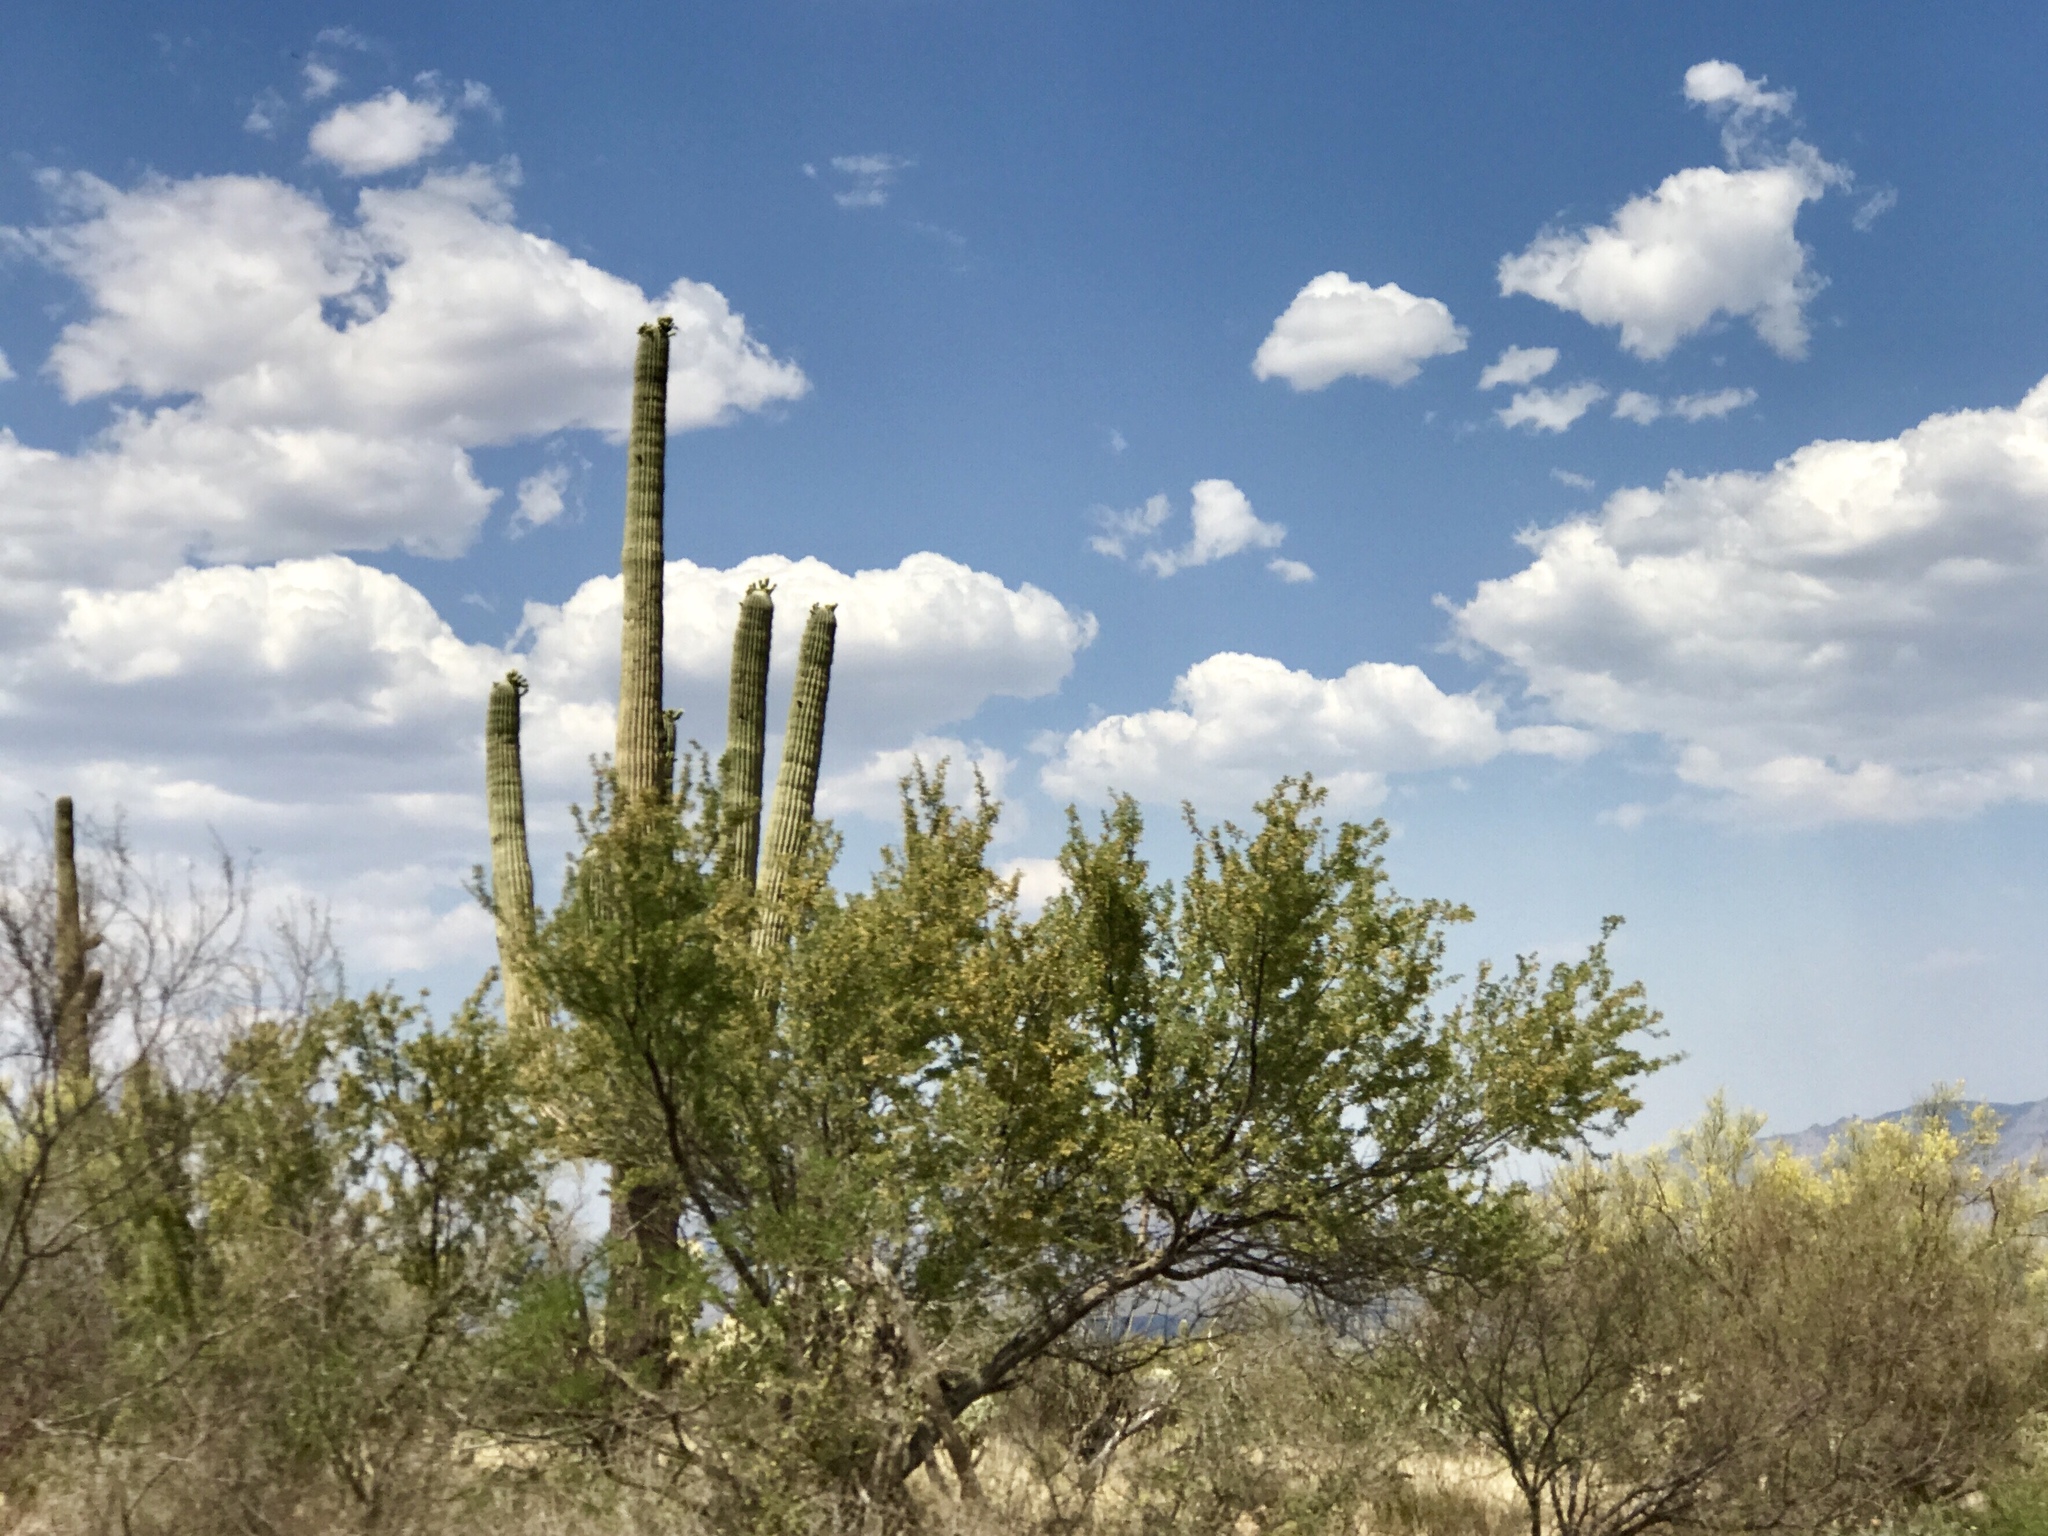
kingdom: Plantae
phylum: Tracheophyta
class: Magnoliopsida
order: Caryophyllales
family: Cactaceae
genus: Carnegiea
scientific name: Carnegiea gigantea
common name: Saguaro
